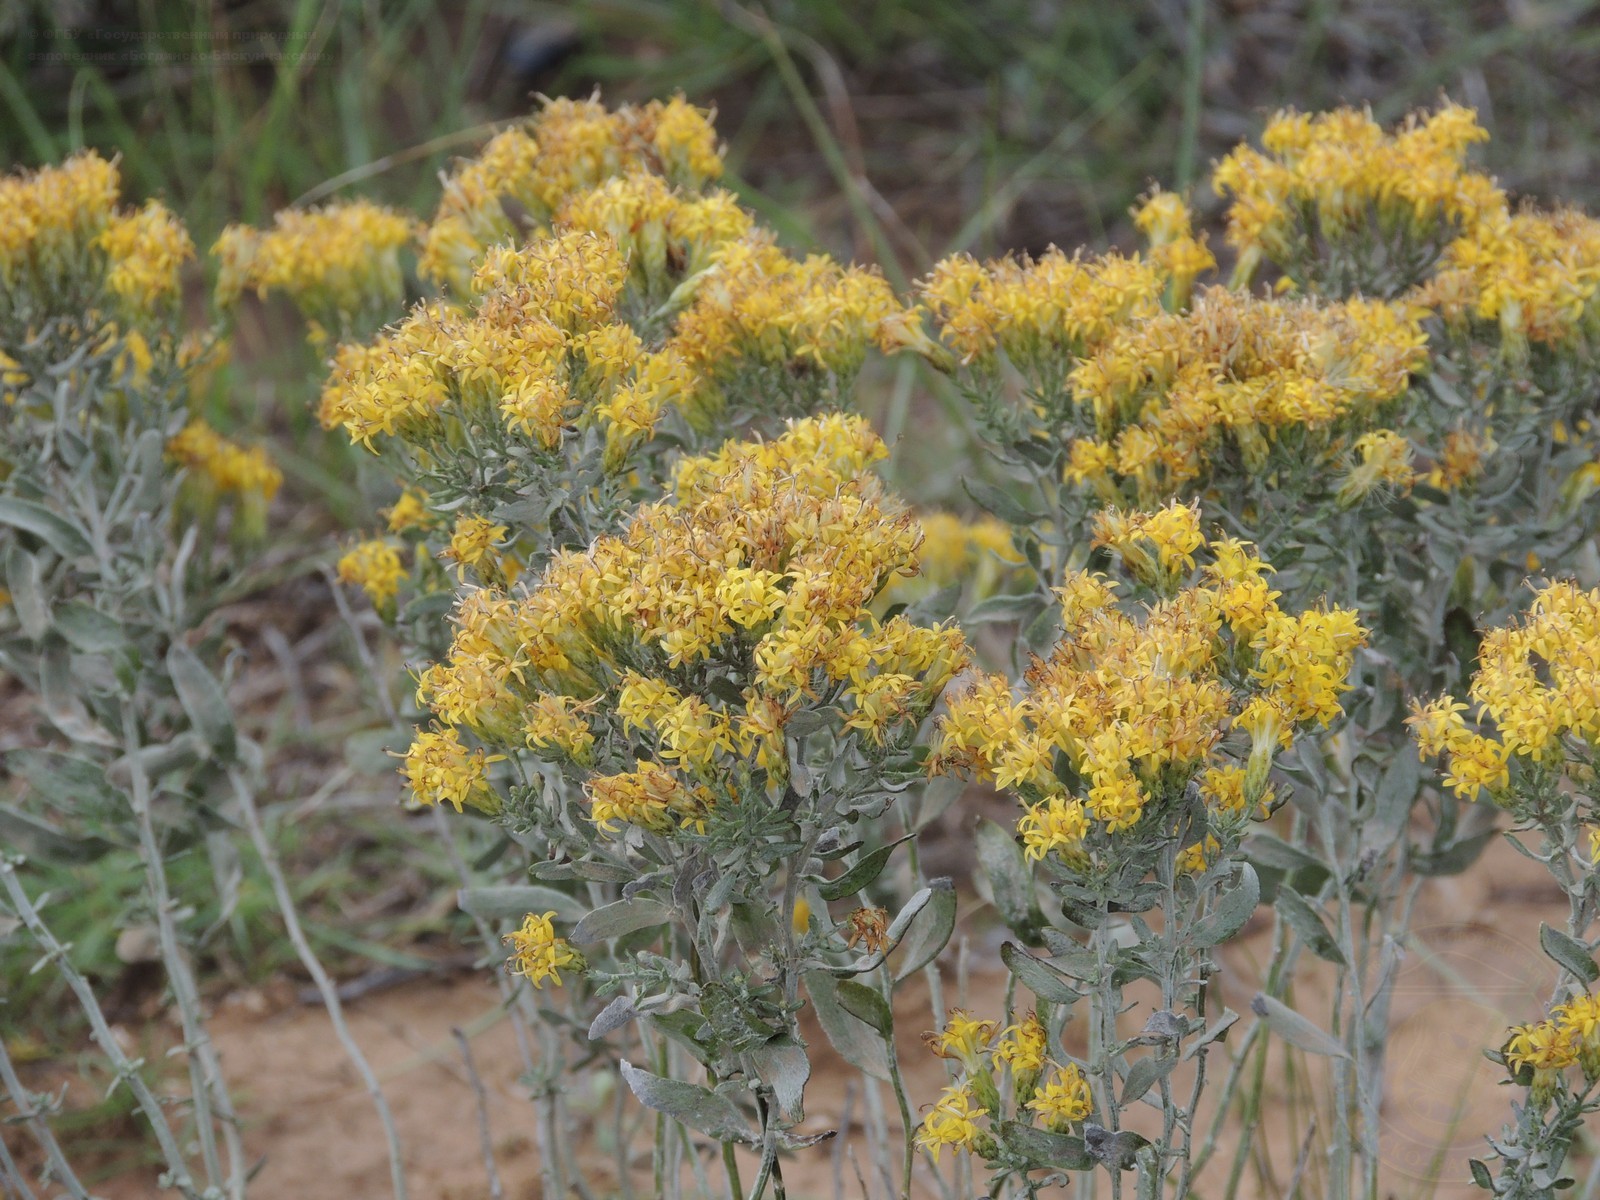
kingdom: Plantae
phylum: Tracheophyta
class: Magnoliopsida
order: Asterales
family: Asteraceae
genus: Galatella
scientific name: Galatella villosa
